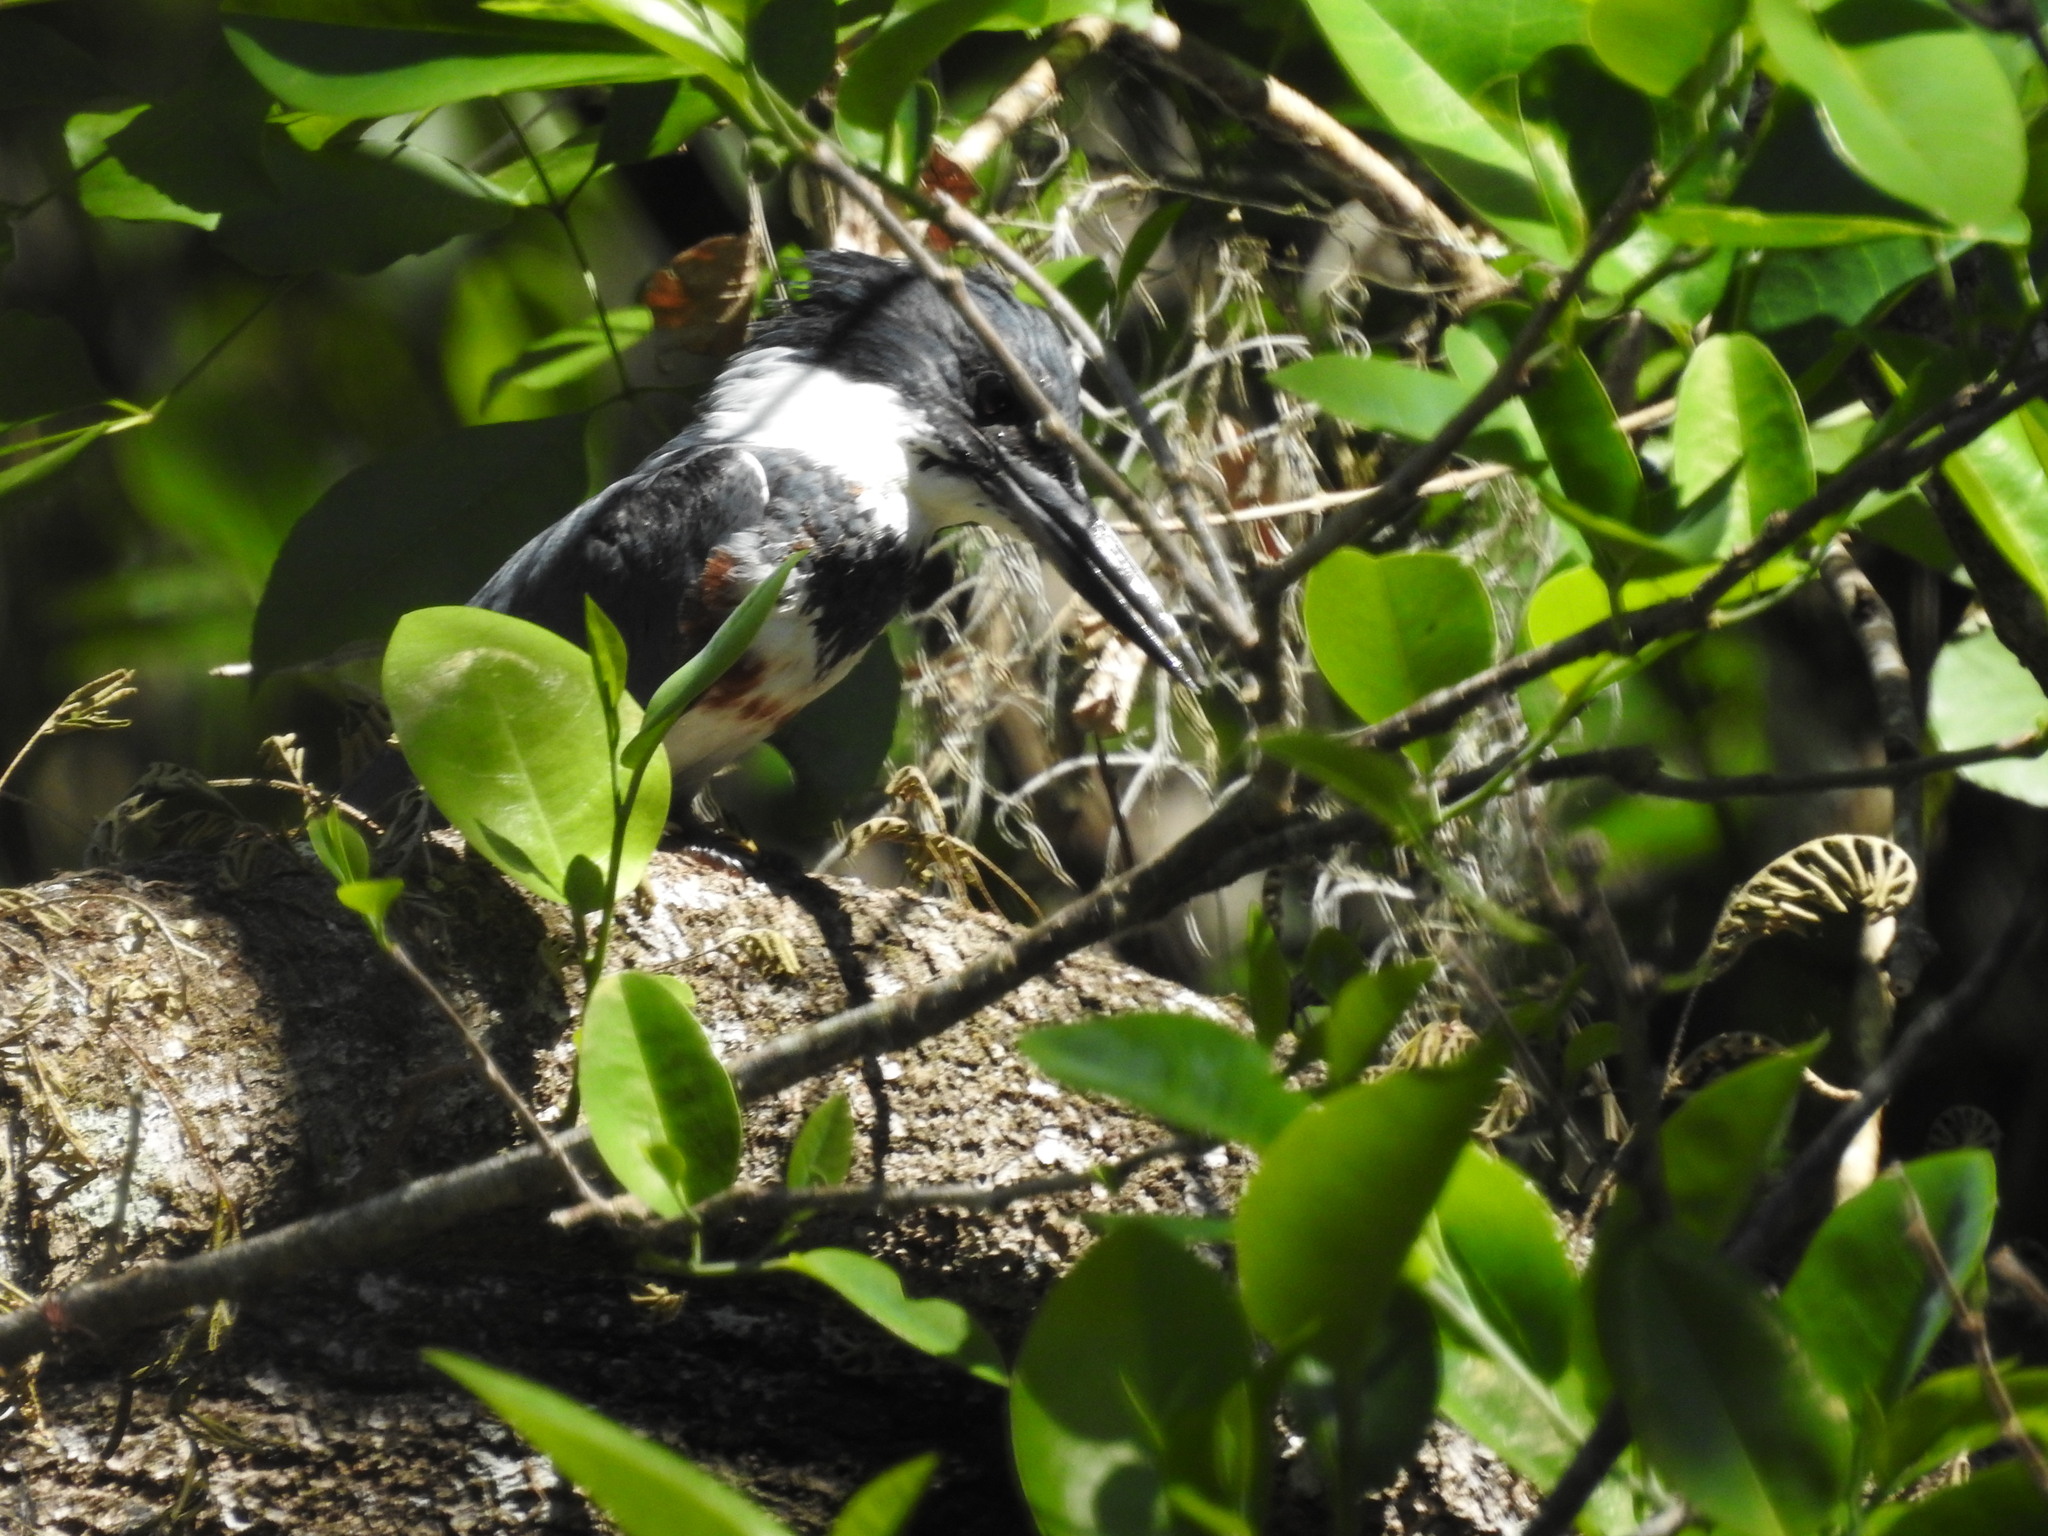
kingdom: Animalia
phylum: Chordata
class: Aves
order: Coraciiformes
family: Alcedinidae
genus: Megaceryle
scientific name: Megaceryle alcyon
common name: Belted kingfisher
